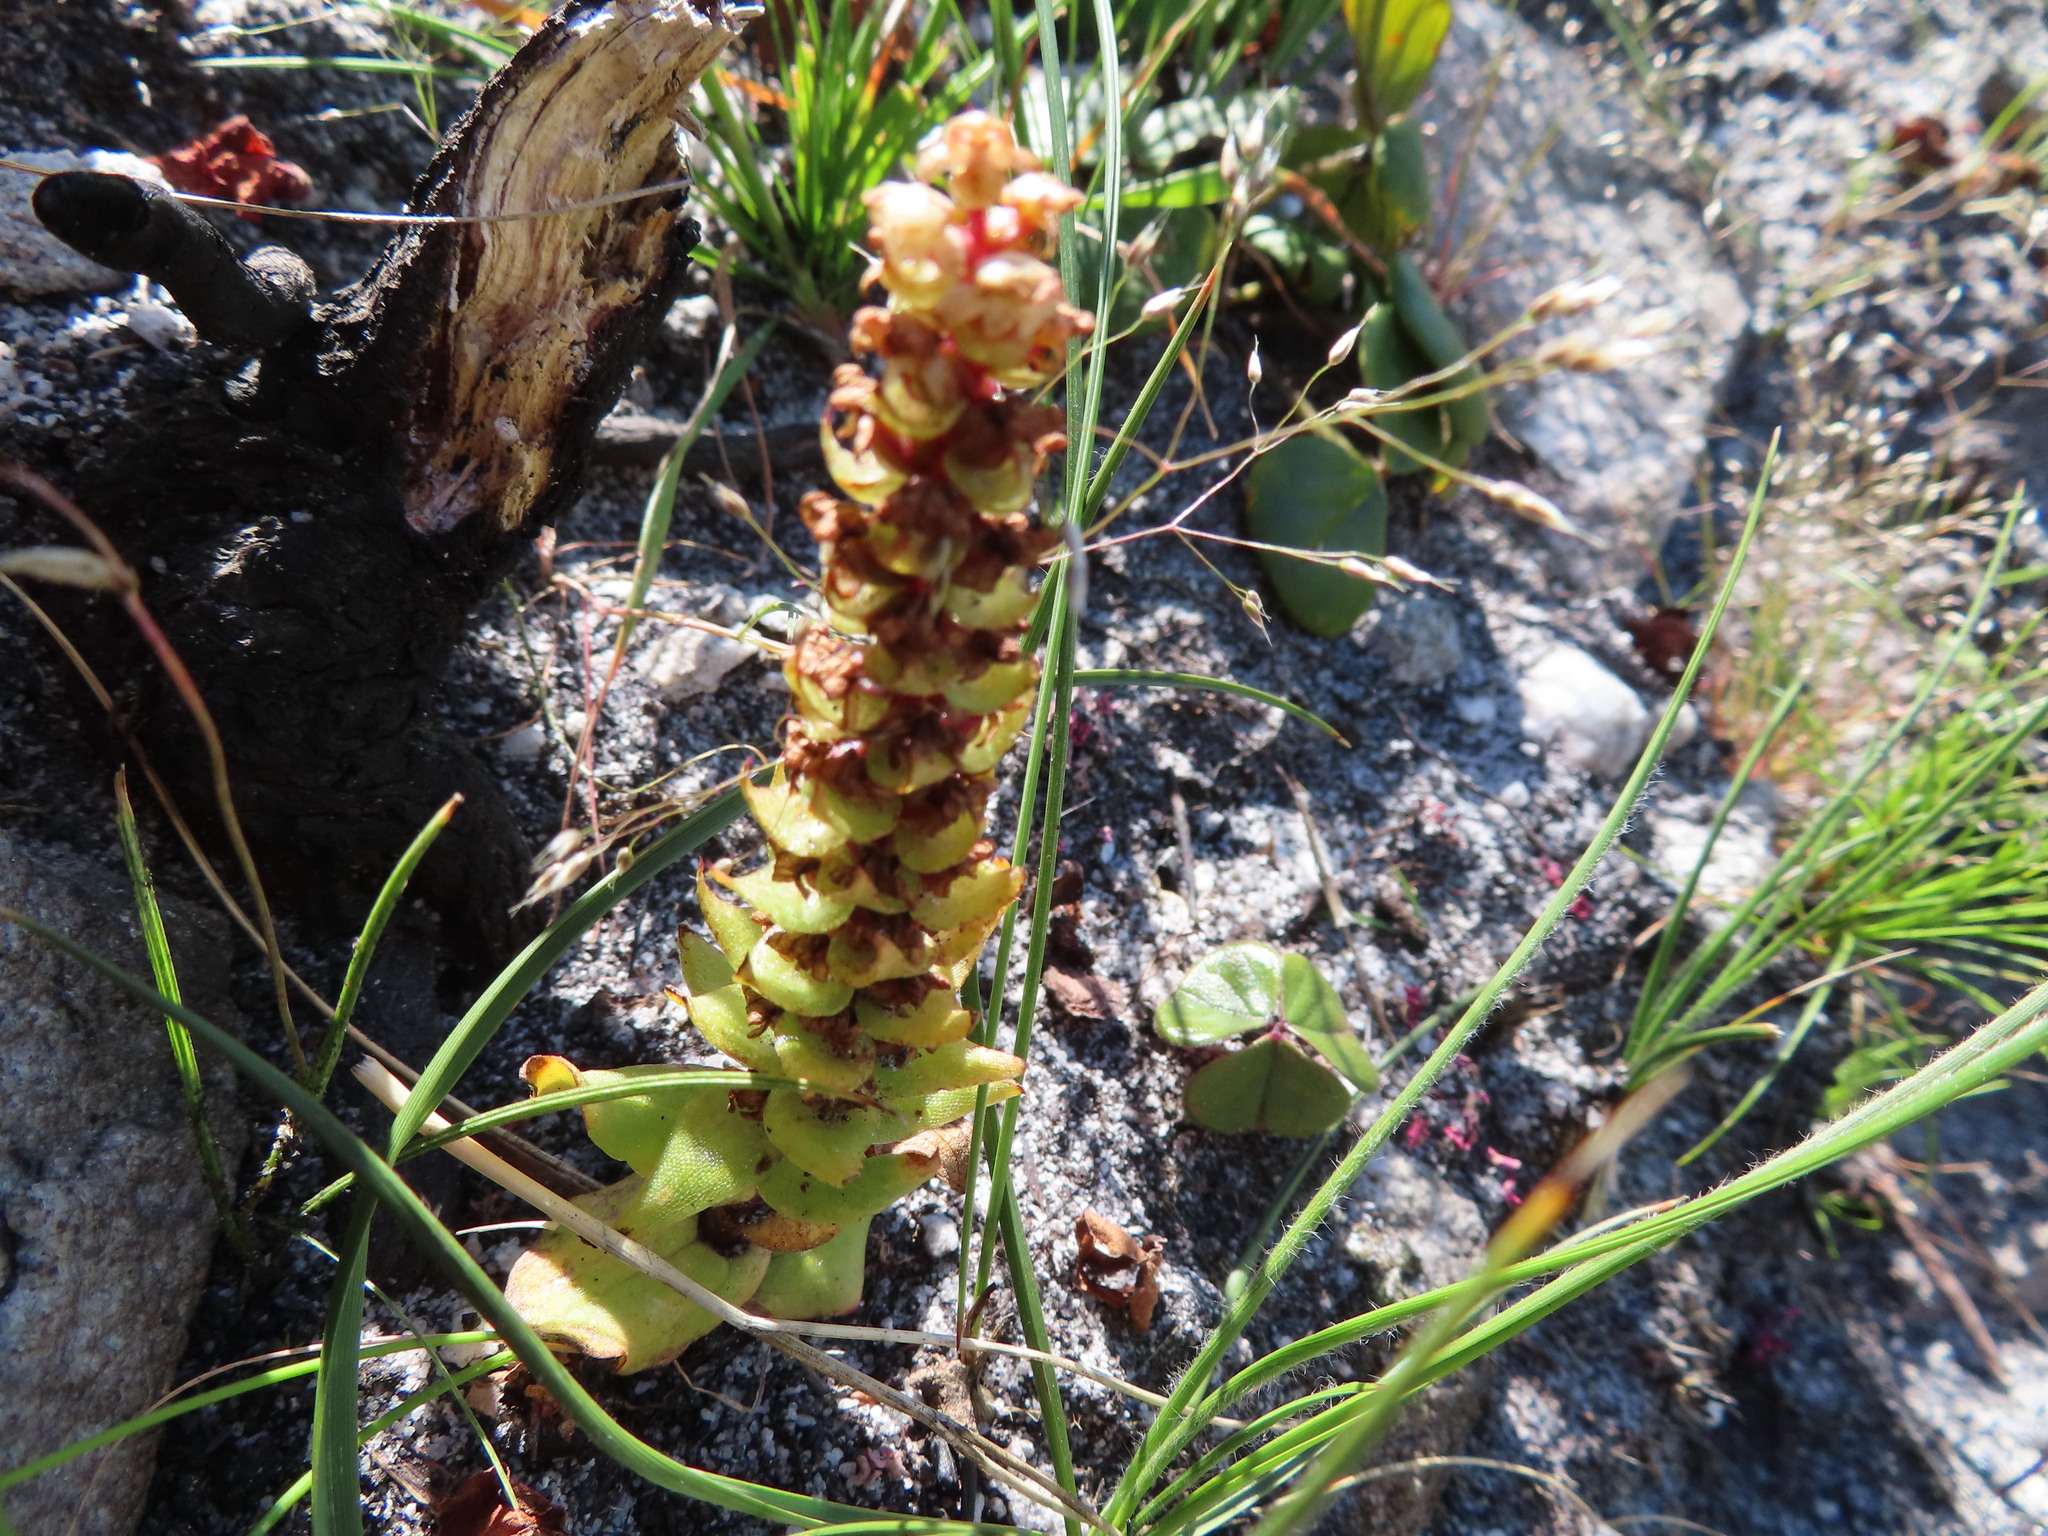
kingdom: Plantae
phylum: Tracheophyta
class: Liliopsida
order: Asparagales
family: Orchidaceae
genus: Satyrium
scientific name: Satyrium bicallosum
